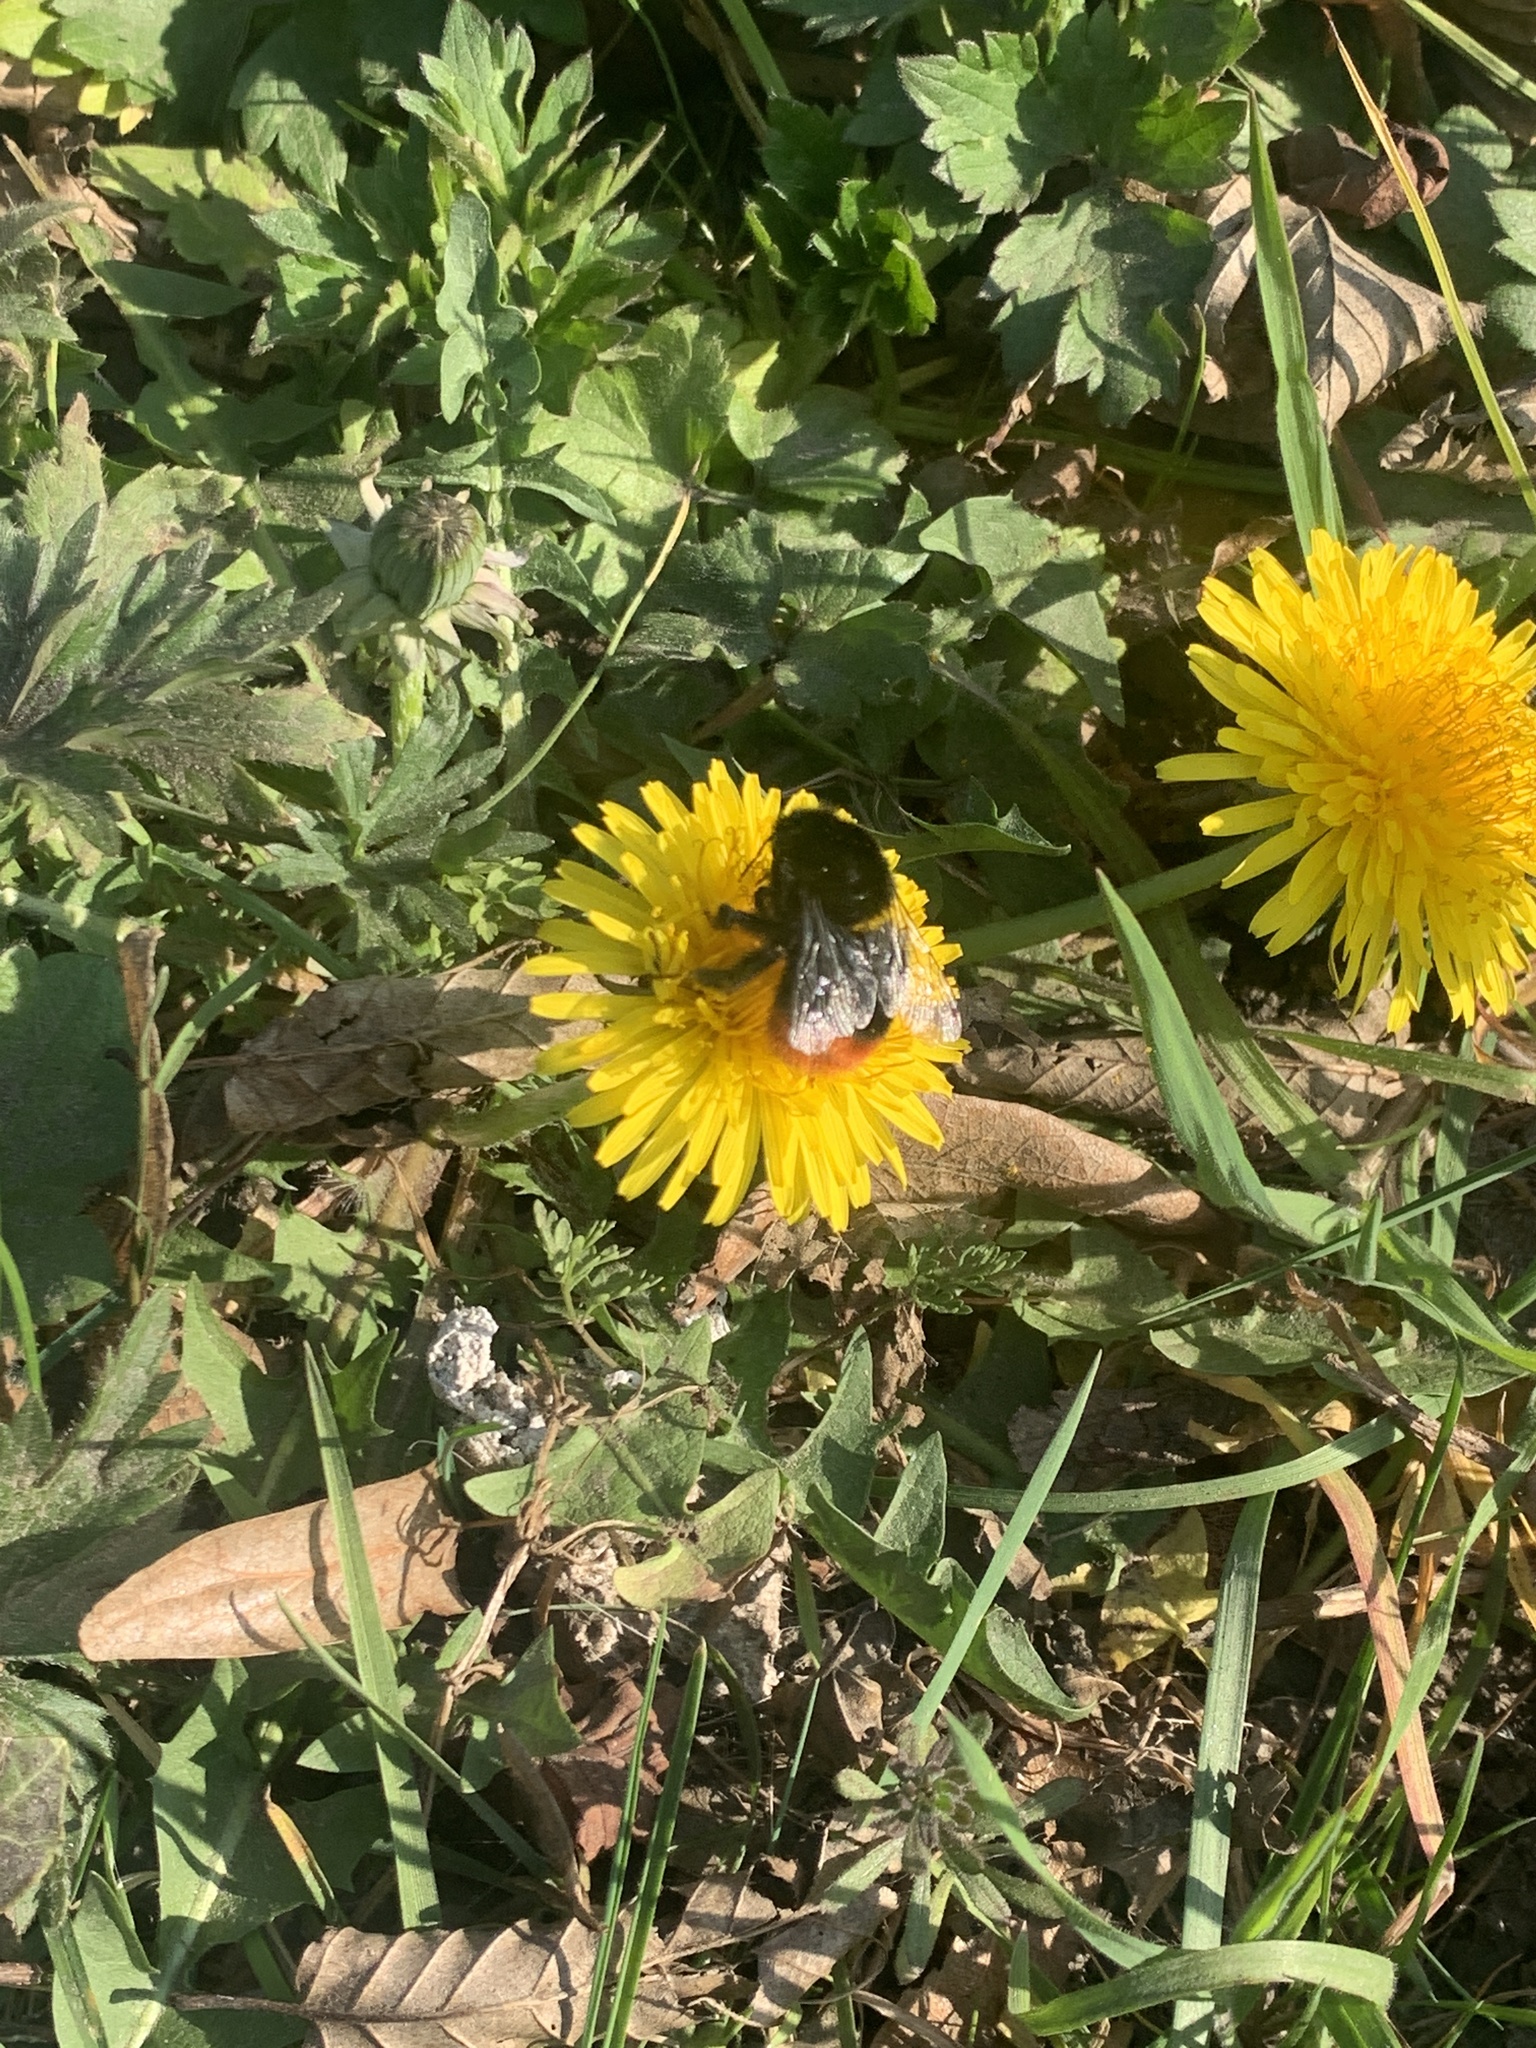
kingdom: Animalia
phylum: Arthropoda
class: Insecta
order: Hymenoptera
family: Apidae
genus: Bombus
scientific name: Bombus lapidarius
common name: Large red-tailed humble-bee
